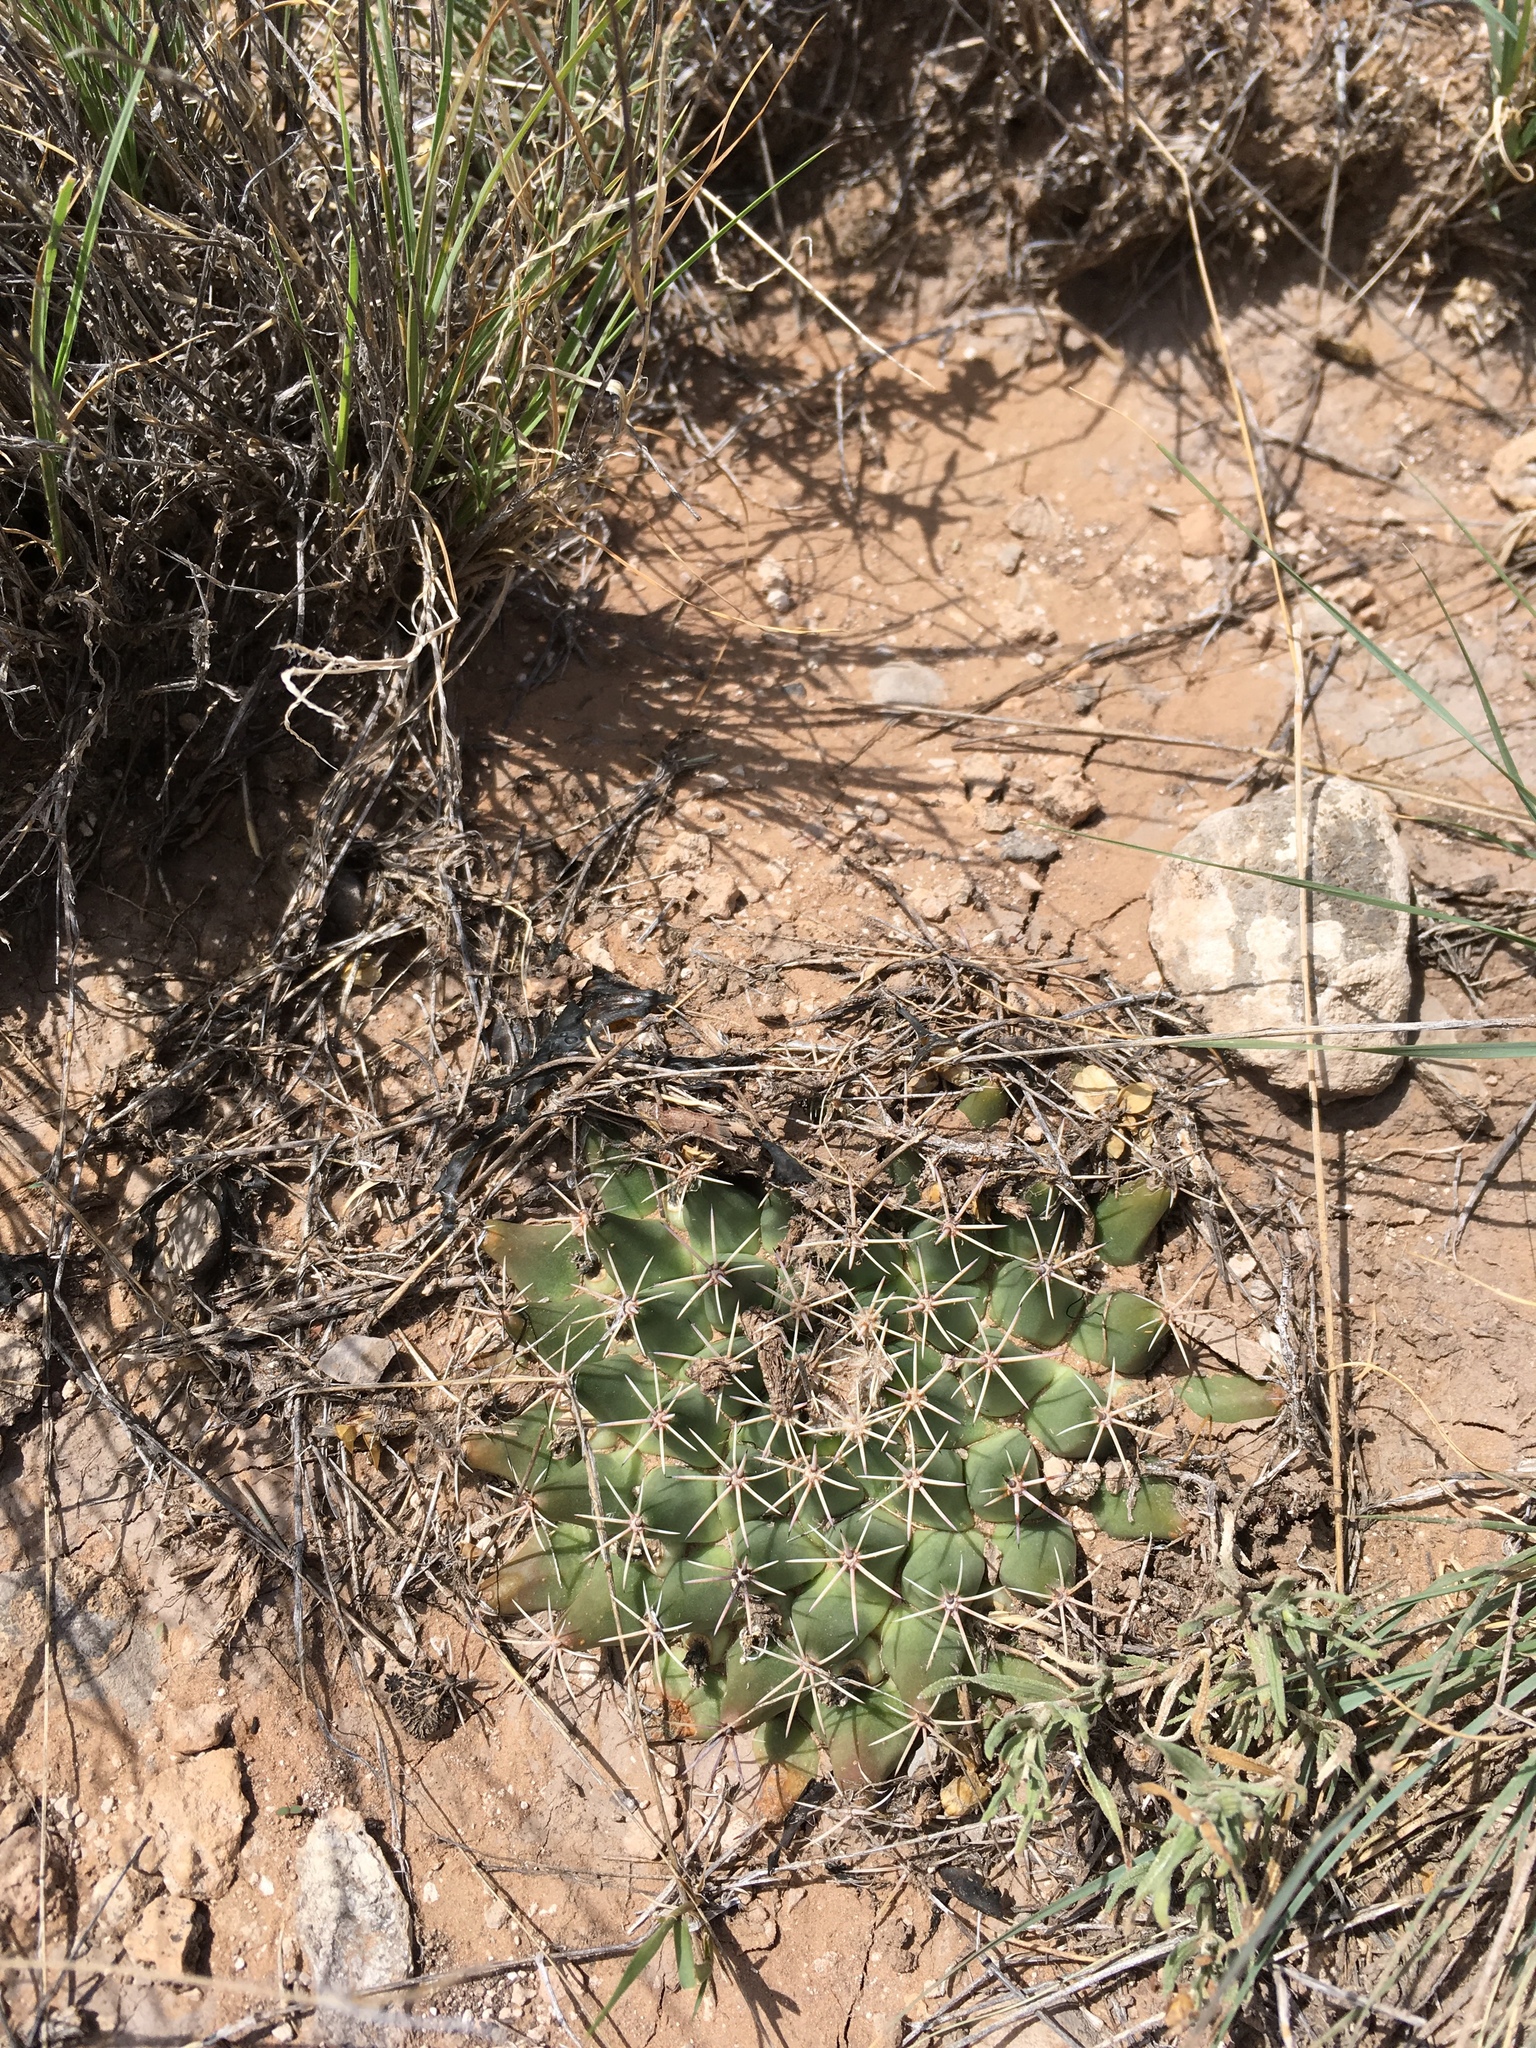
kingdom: Plantae
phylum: Tracheophyta
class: Magnoliopsida
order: Caryophyllales
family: Cactaceae
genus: Mammillaria
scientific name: Mammillaria heyderi
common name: Little nipple cactus
